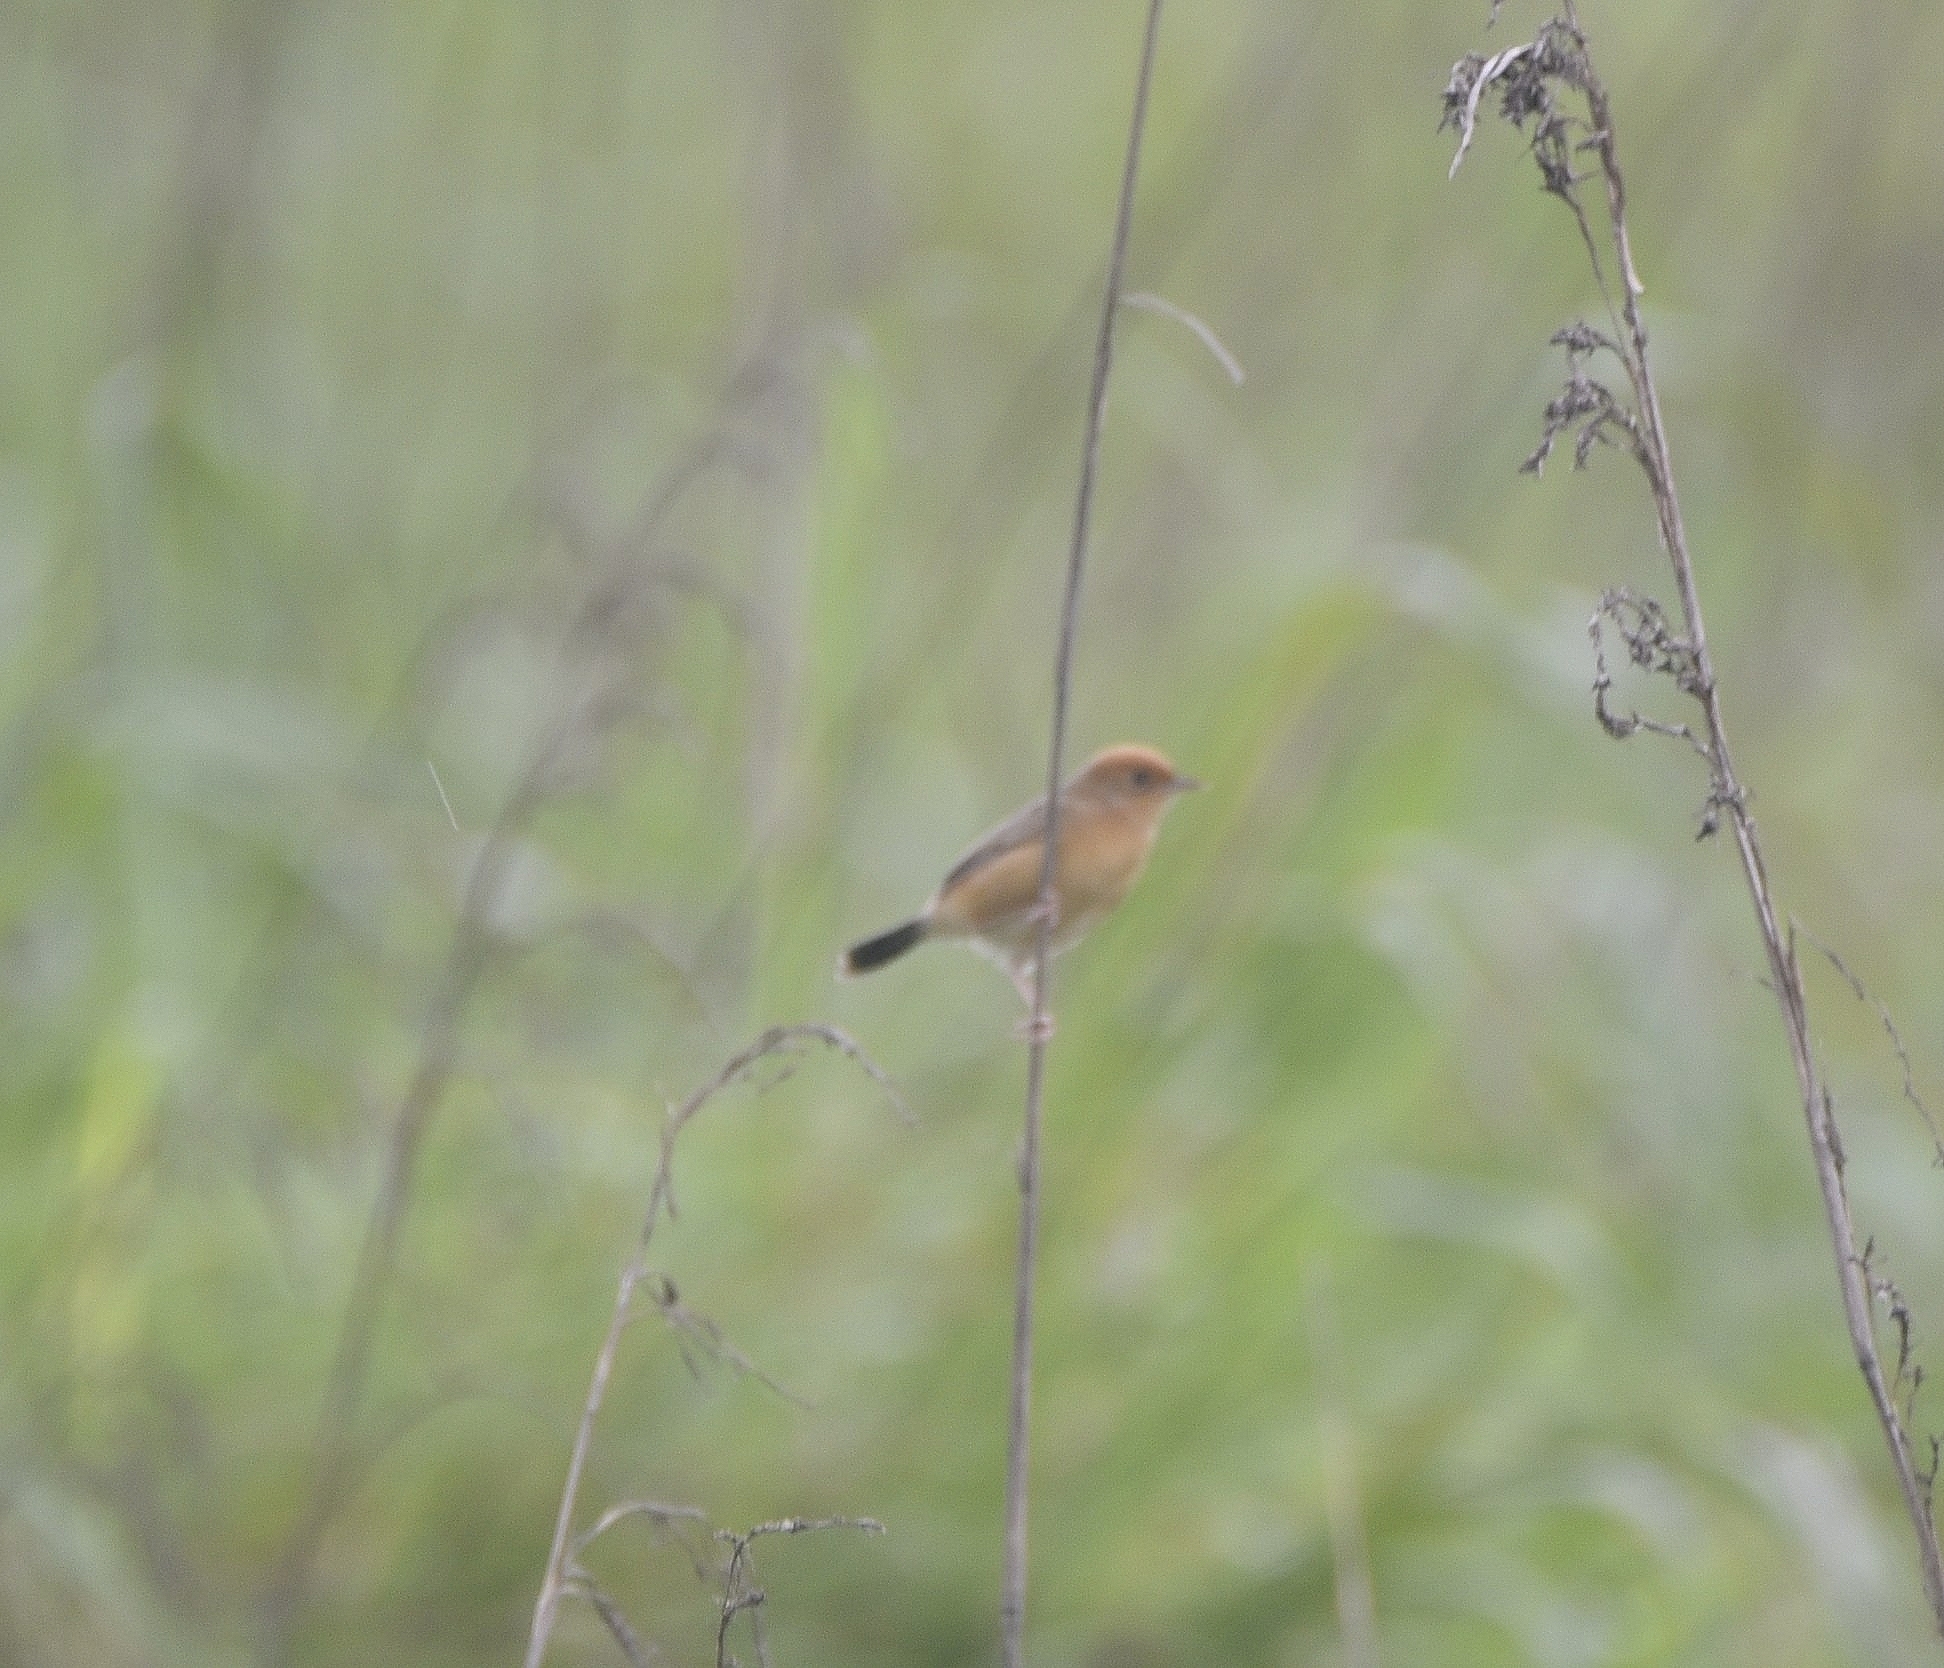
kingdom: Animalia
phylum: Chordata
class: Aves
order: Passeriformes
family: Cisticolidae
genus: Cisticola
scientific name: Cisticola exilis
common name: Golden-headed cisticola
